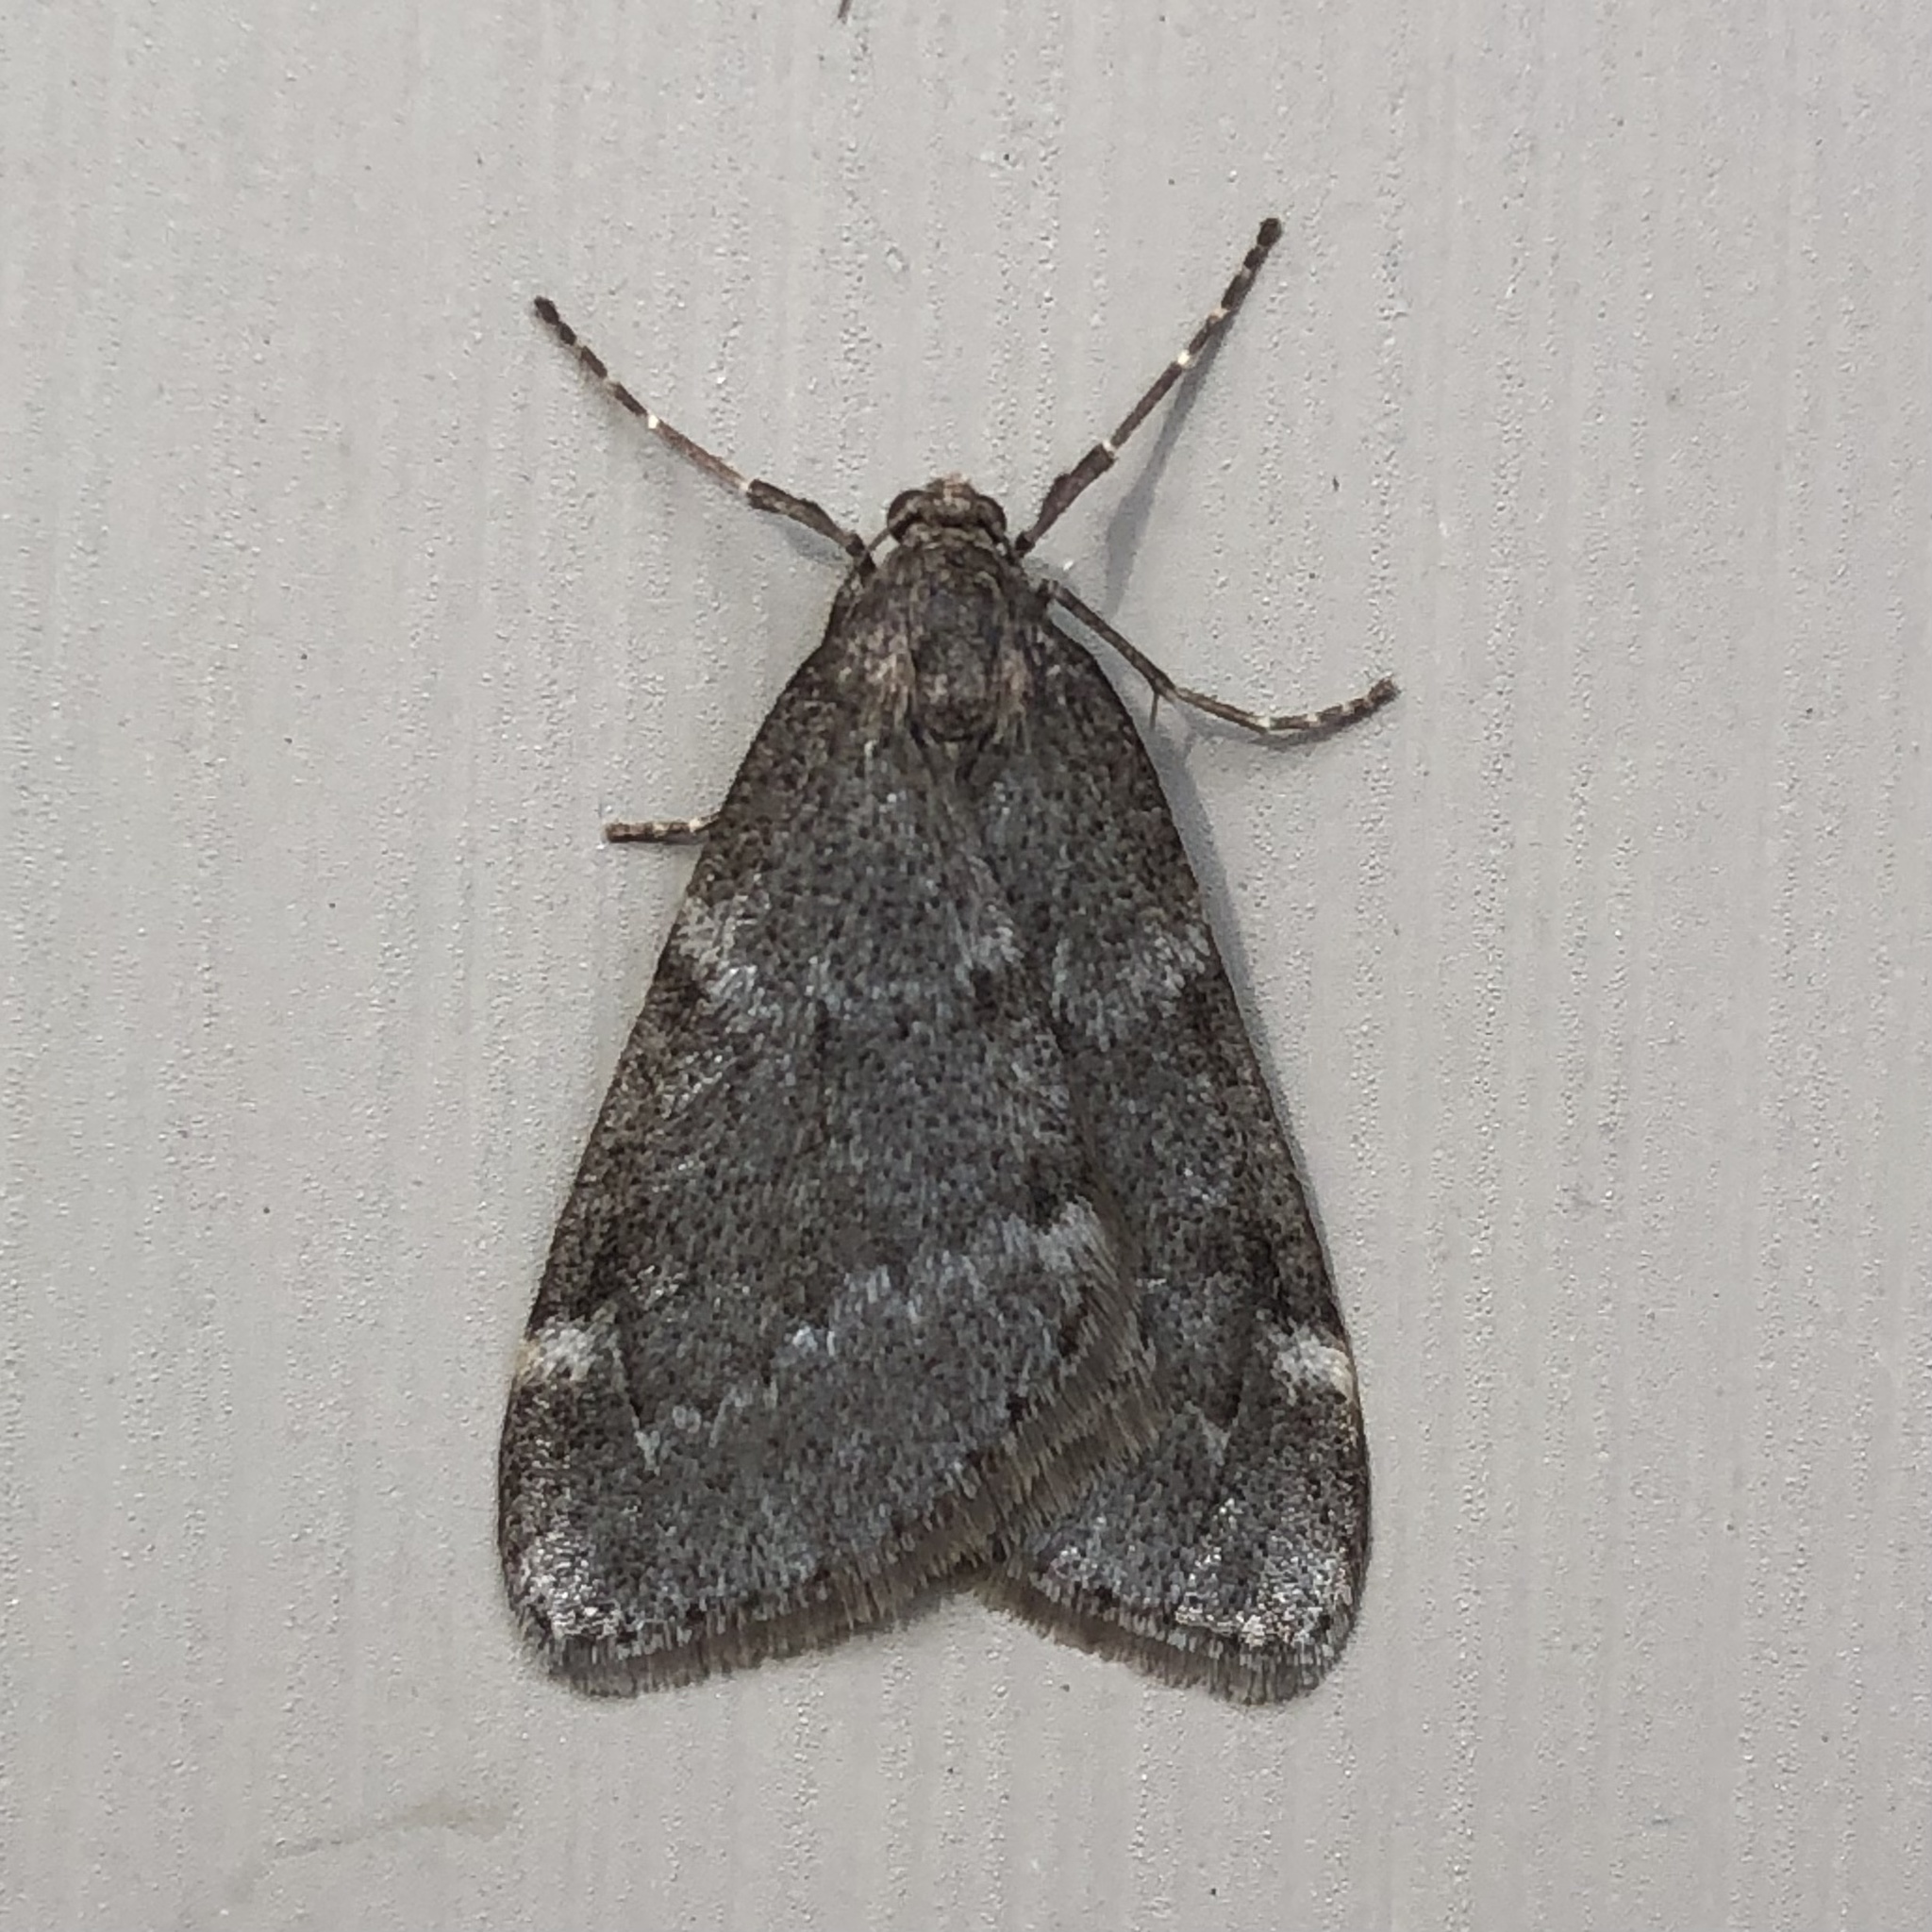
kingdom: Animalia
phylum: Arthropoda
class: Insecta
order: Lepidoptera
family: Geometridae
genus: Alsophila
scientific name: Alsophila pometaria
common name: Fall cankerworm
